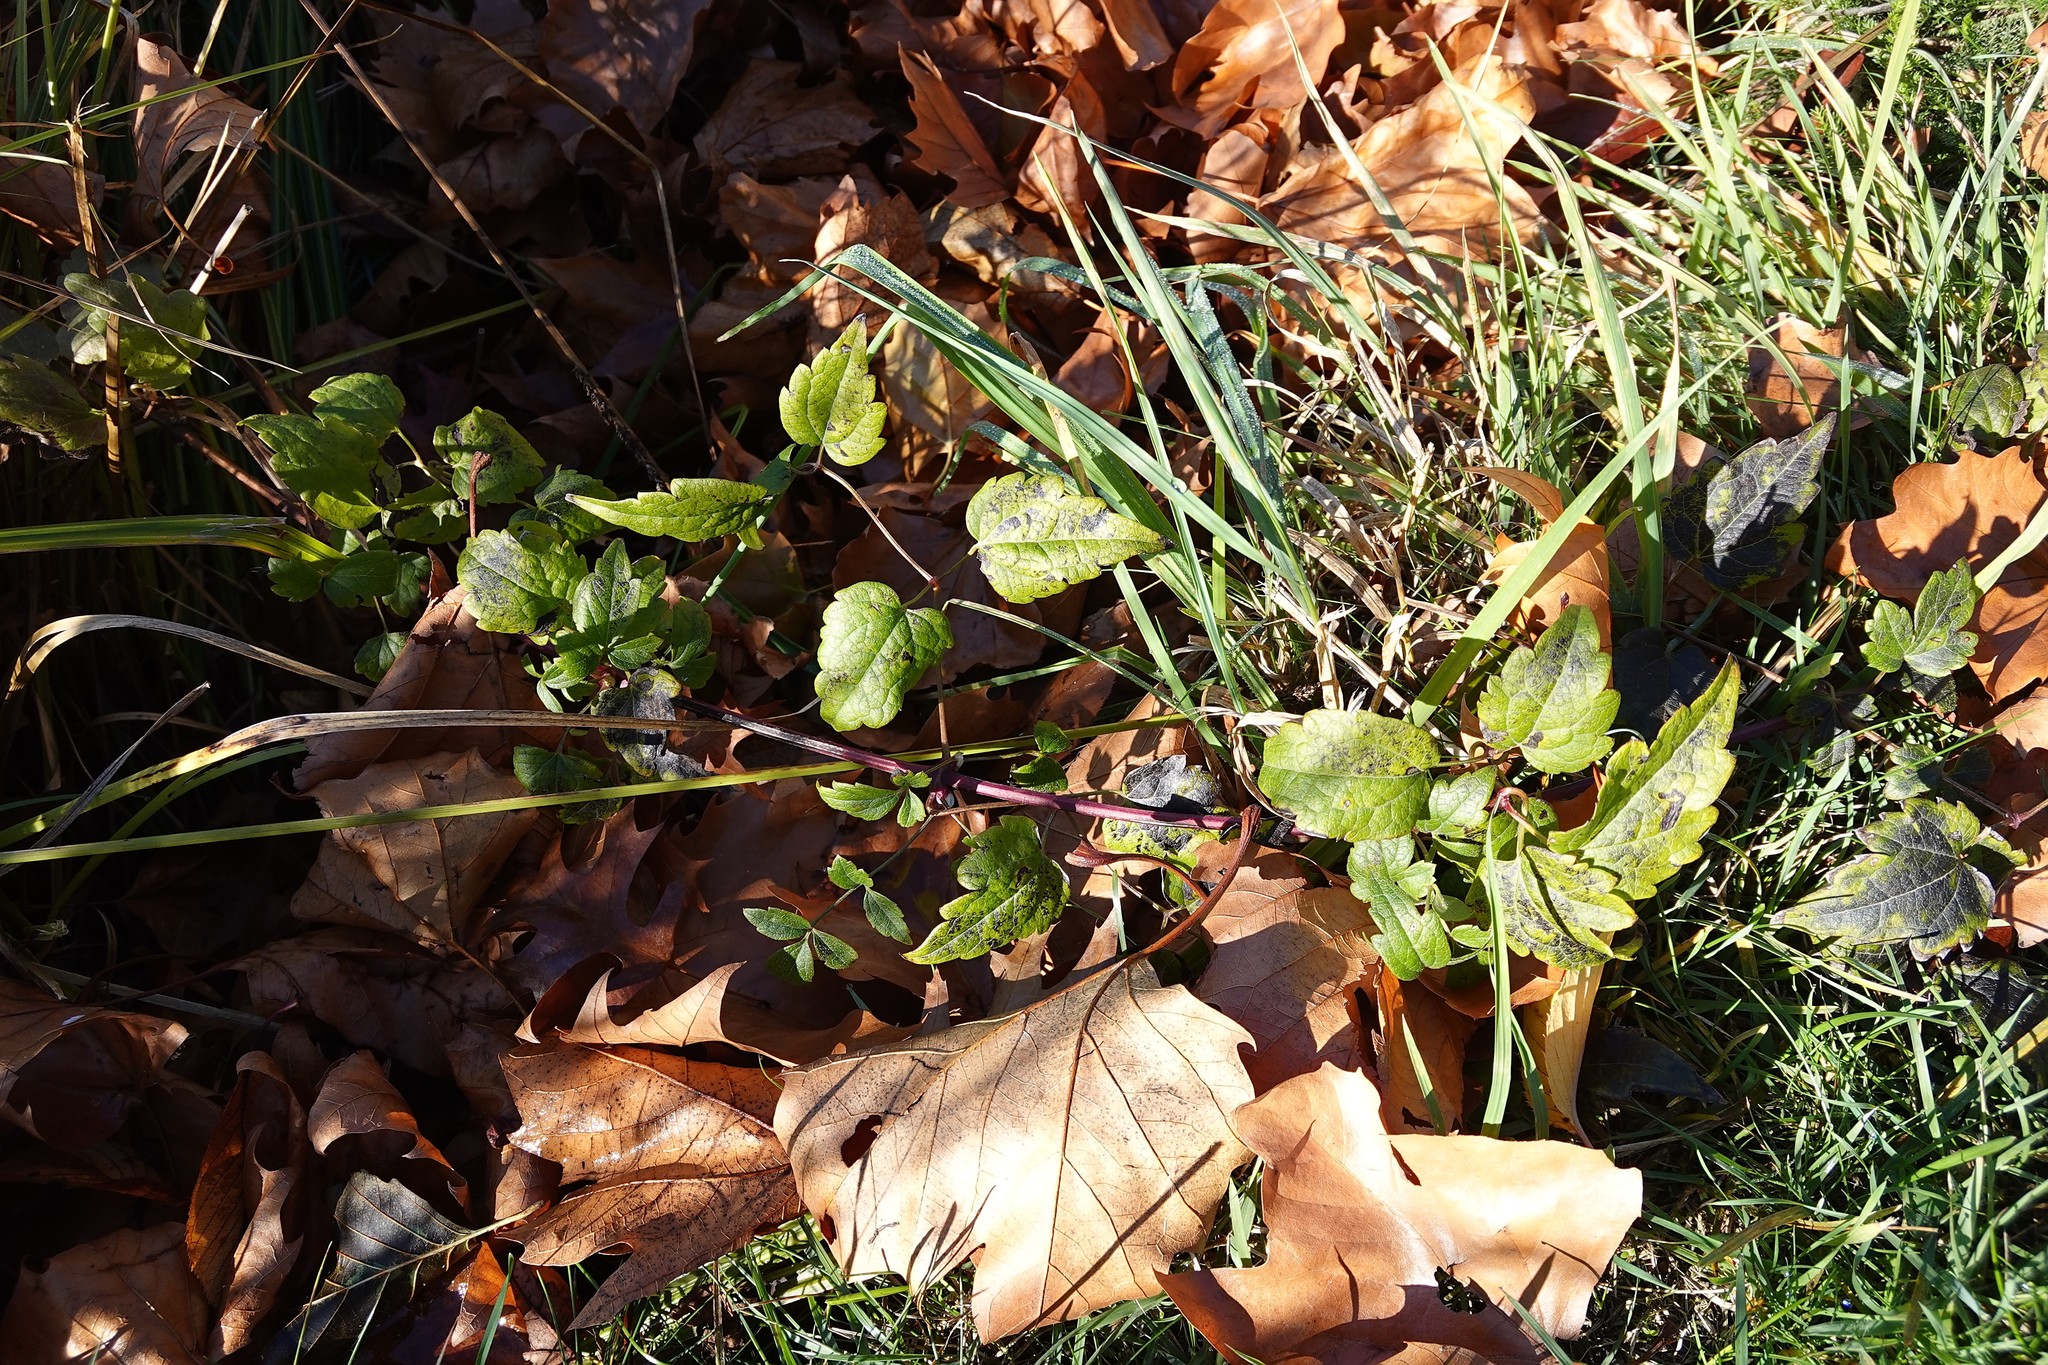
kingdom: Plantae
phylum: Tracheophyta
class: Magnoliopsida
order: Ranunculales
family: Ranunculaceae
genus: Clematis
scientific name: Clematis vitalba
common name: Evergreen clematis
